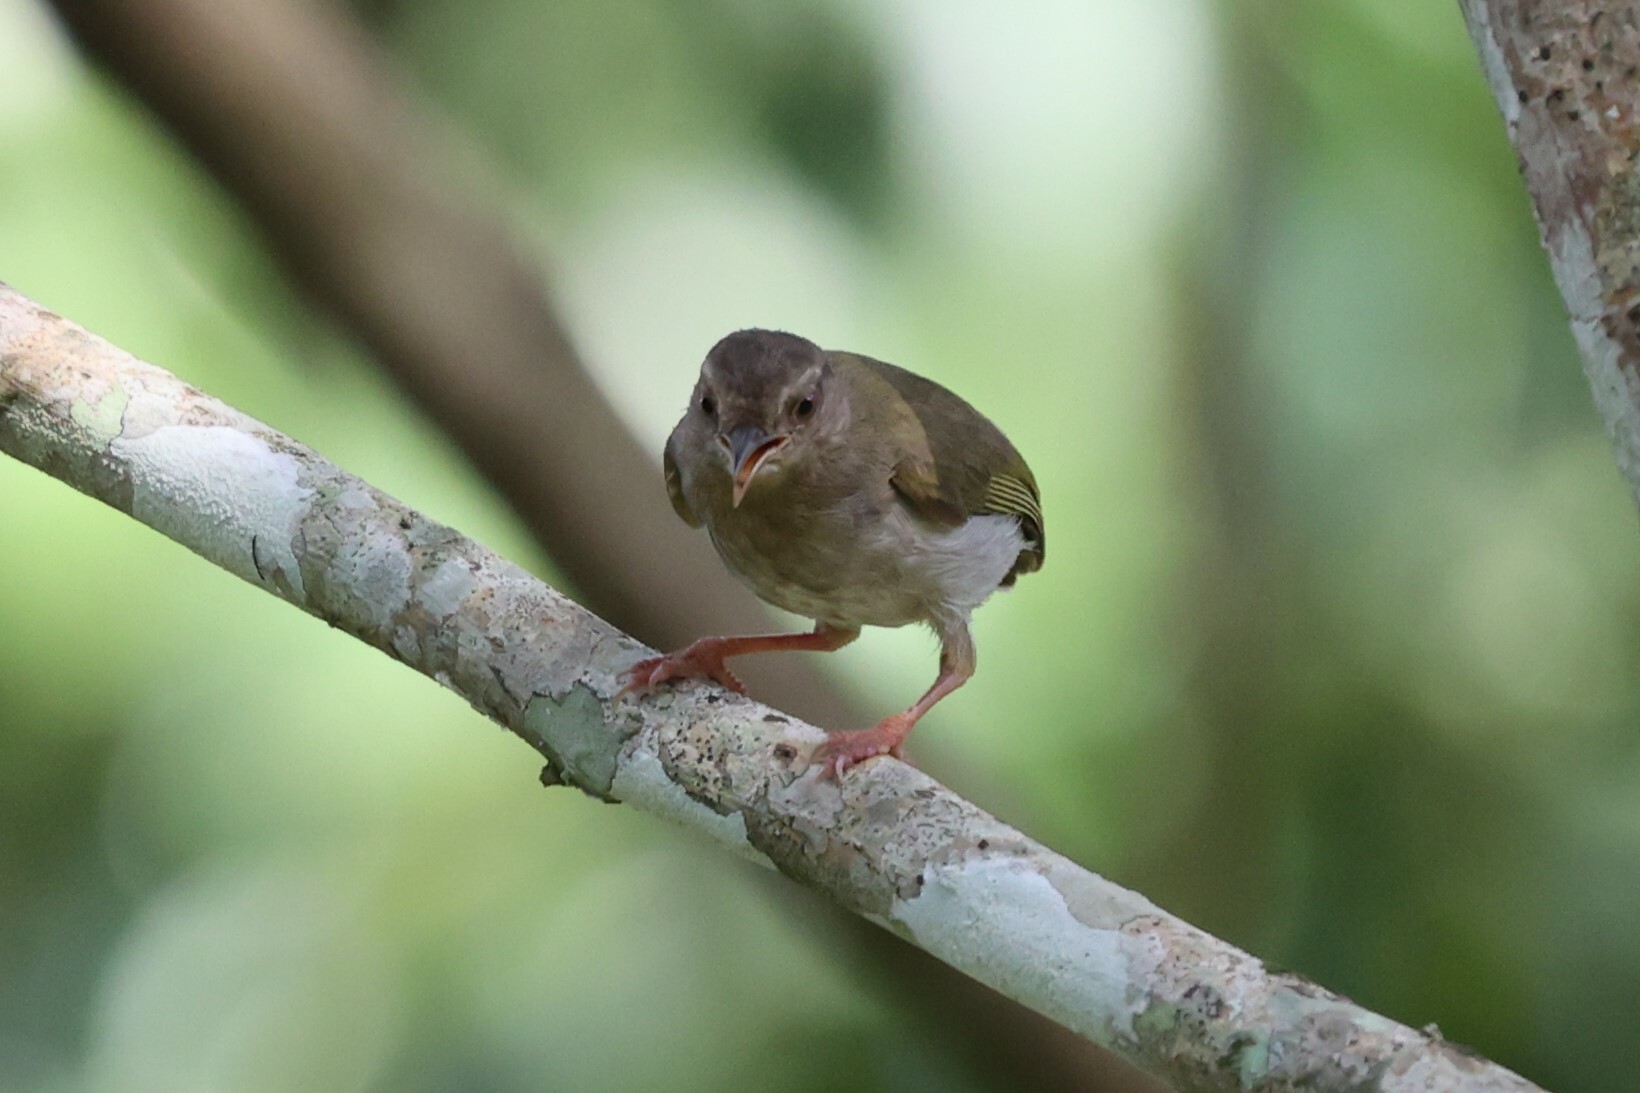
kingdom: Animalia
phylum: Chordata
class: Aves
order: Passeriformes
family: Macrosphenidae
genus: Sylvietta
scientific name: Sylvietta virens
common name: Green crombec
